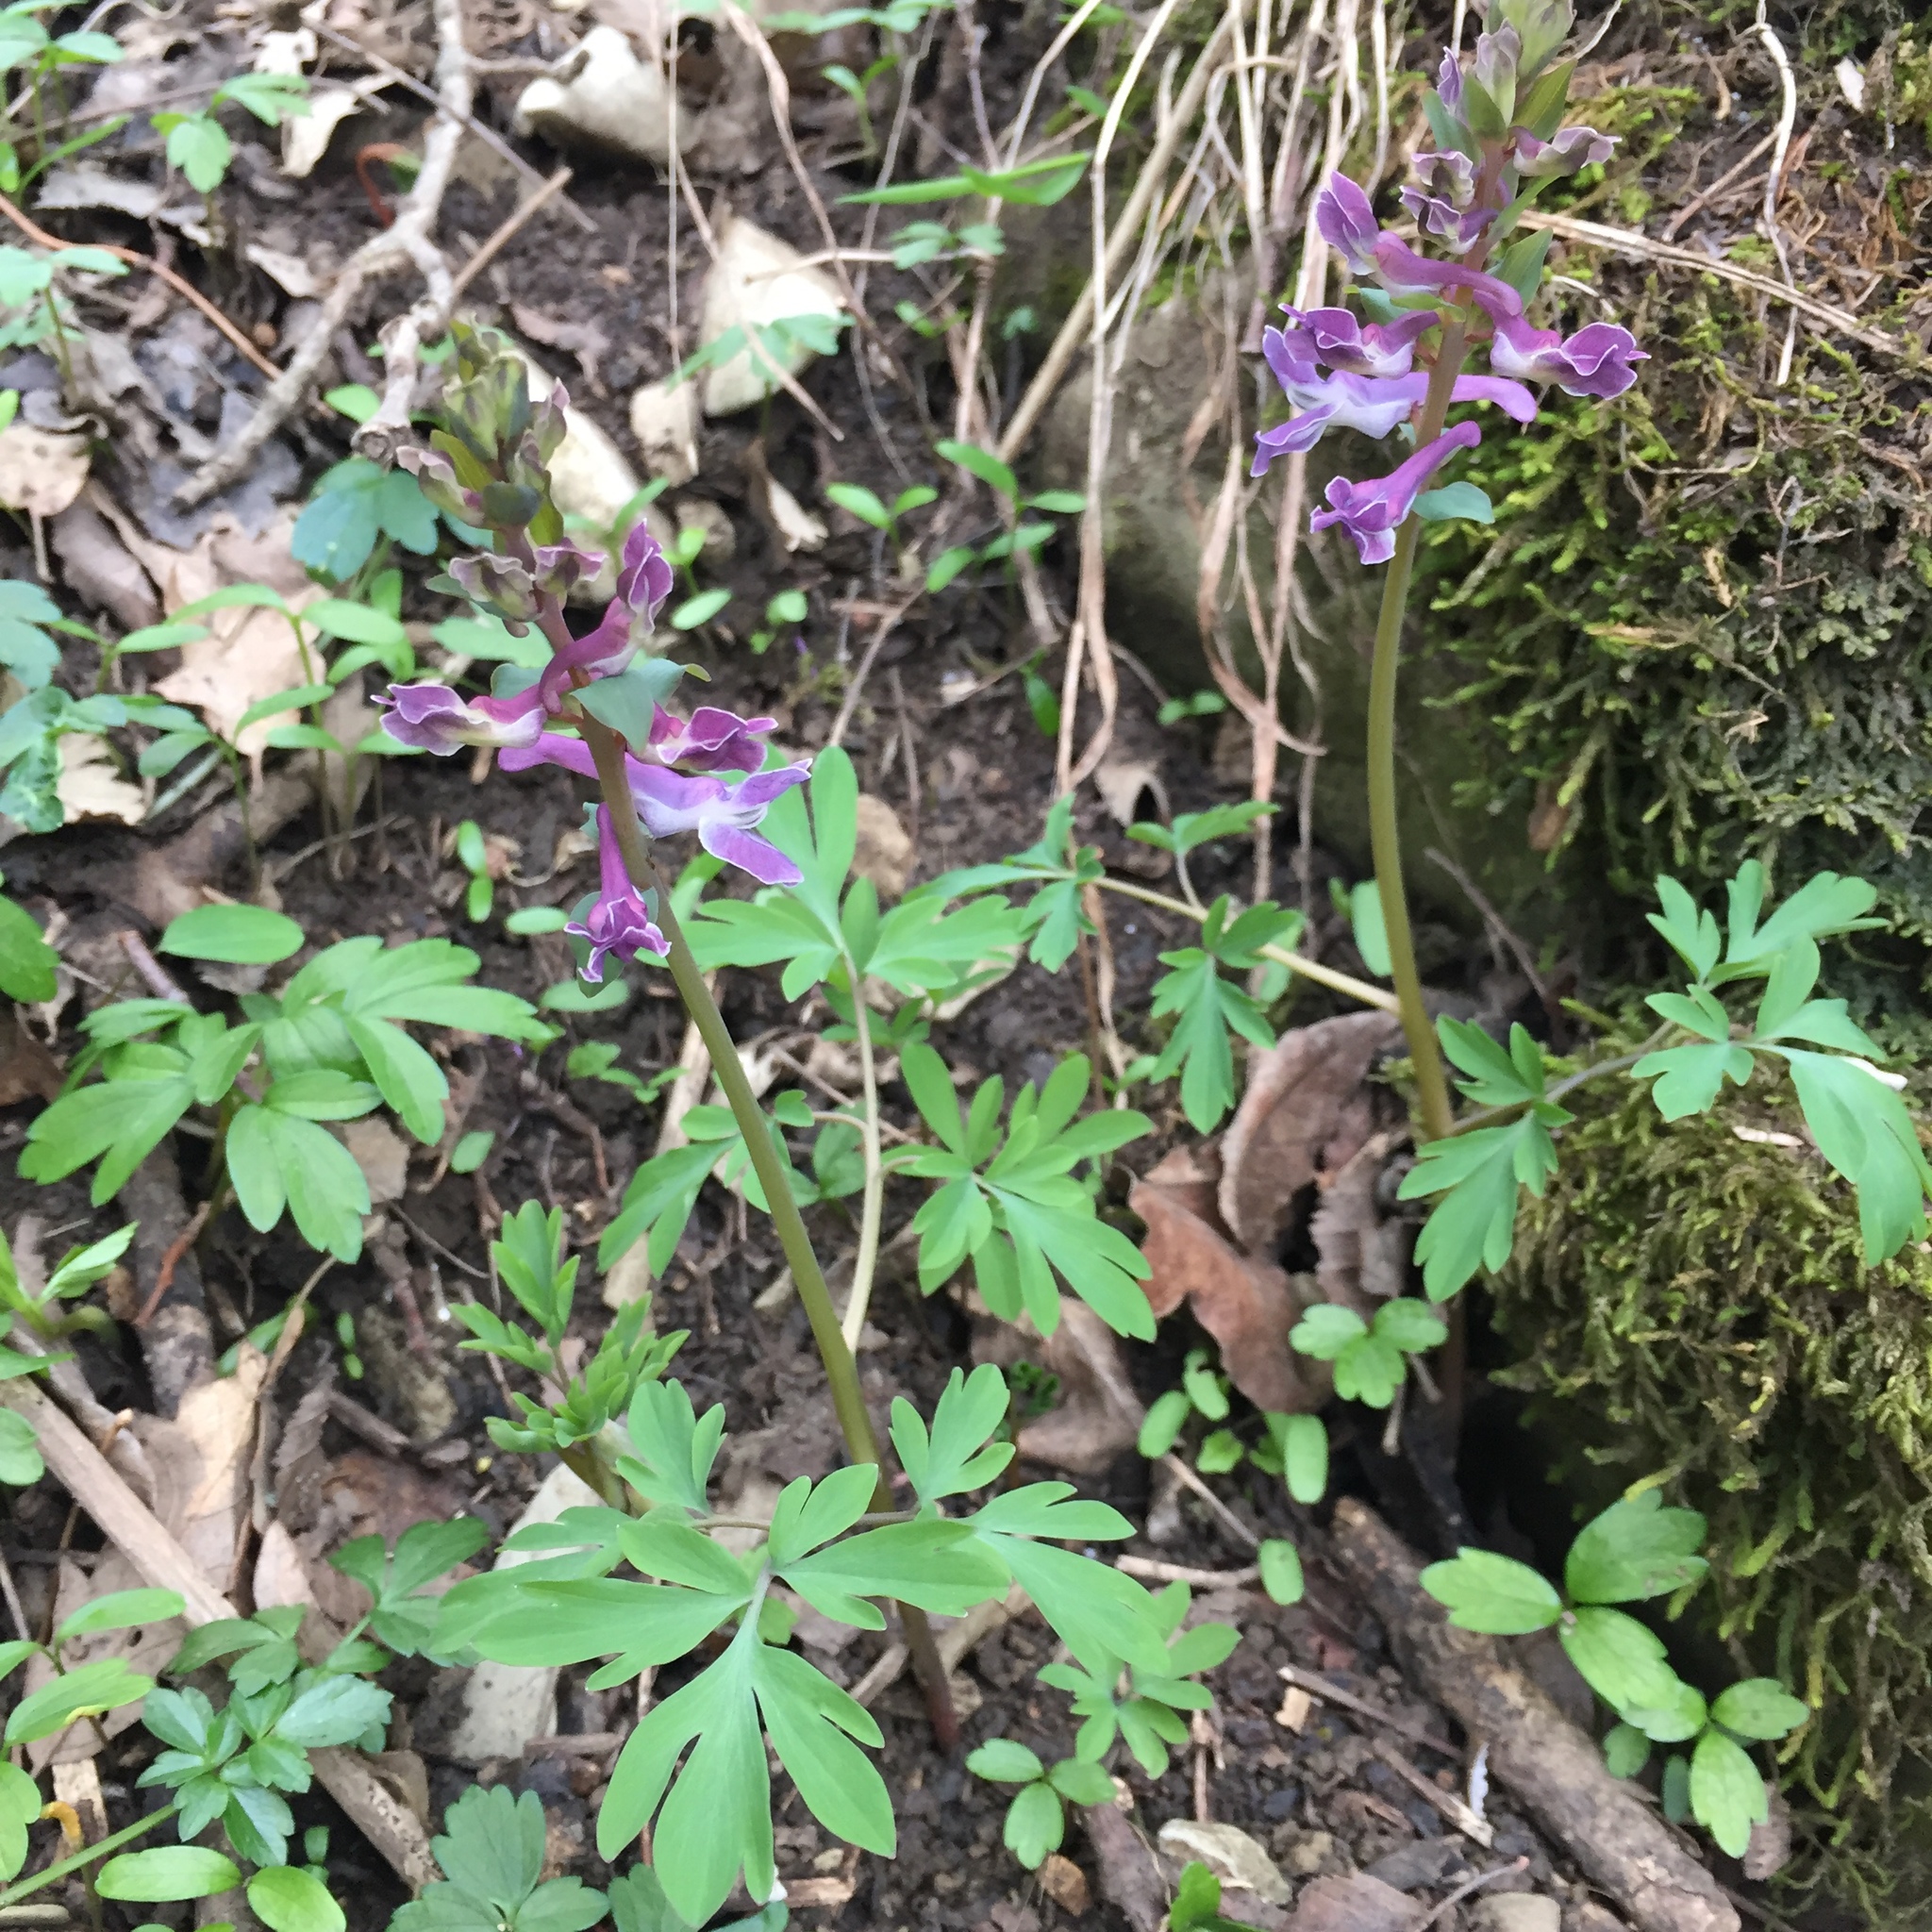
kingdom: Plantae
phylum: Tracheophyta
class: Magnoliopsida
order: Ranunculales
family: Papaveraceae
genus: Corydalis
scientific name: Corydalis cava
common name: Hollowroot
